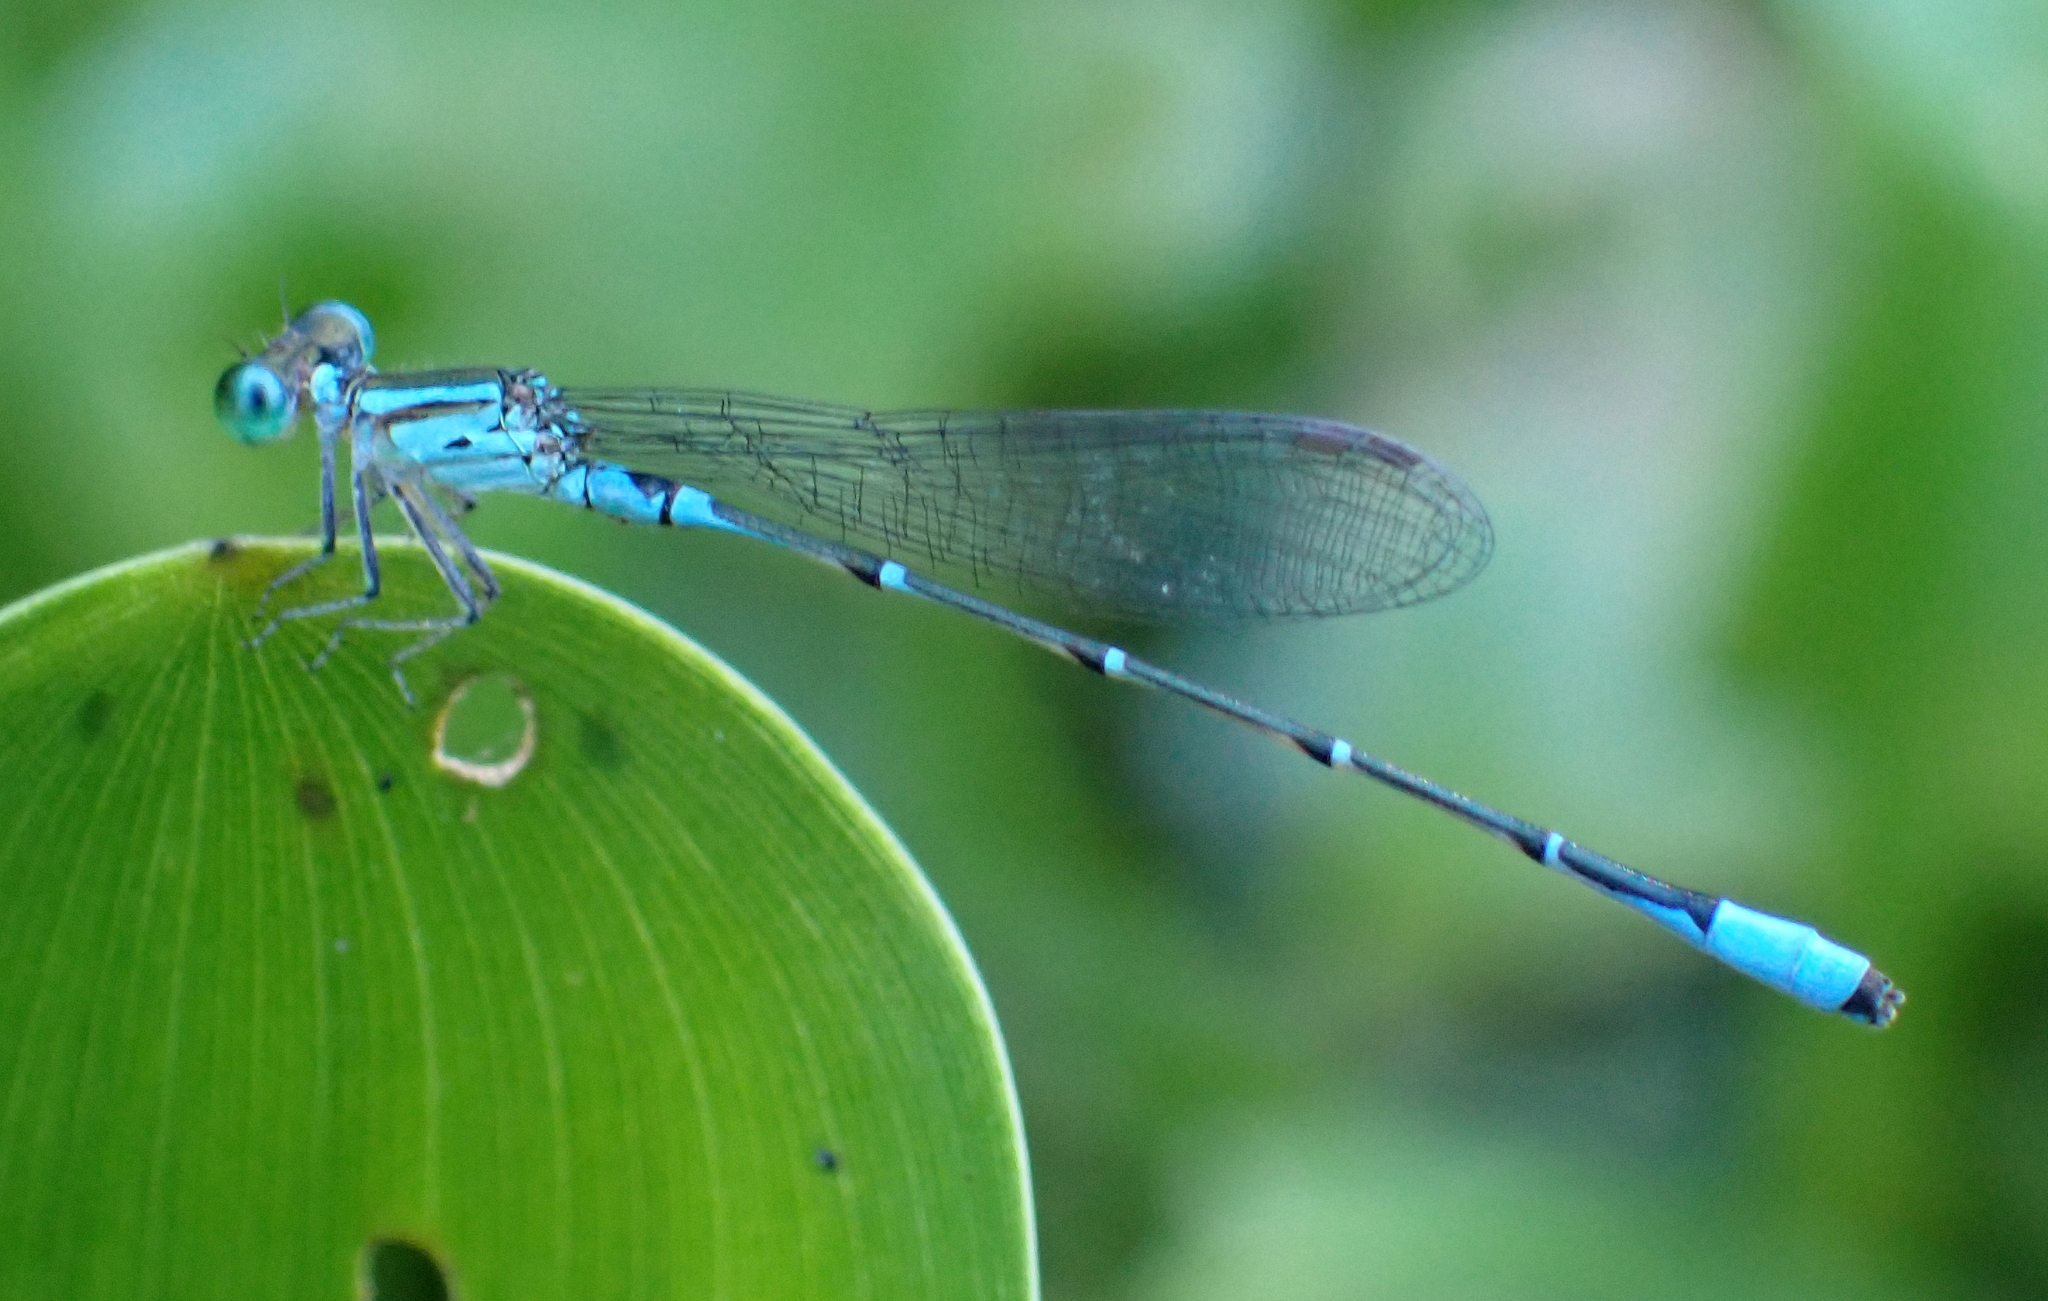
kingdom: Animalia
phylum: Arthropoda
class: Insecta
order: Odonata
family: Coenagrionidae
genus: Telebasis
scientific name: Telebasis obsoleta
